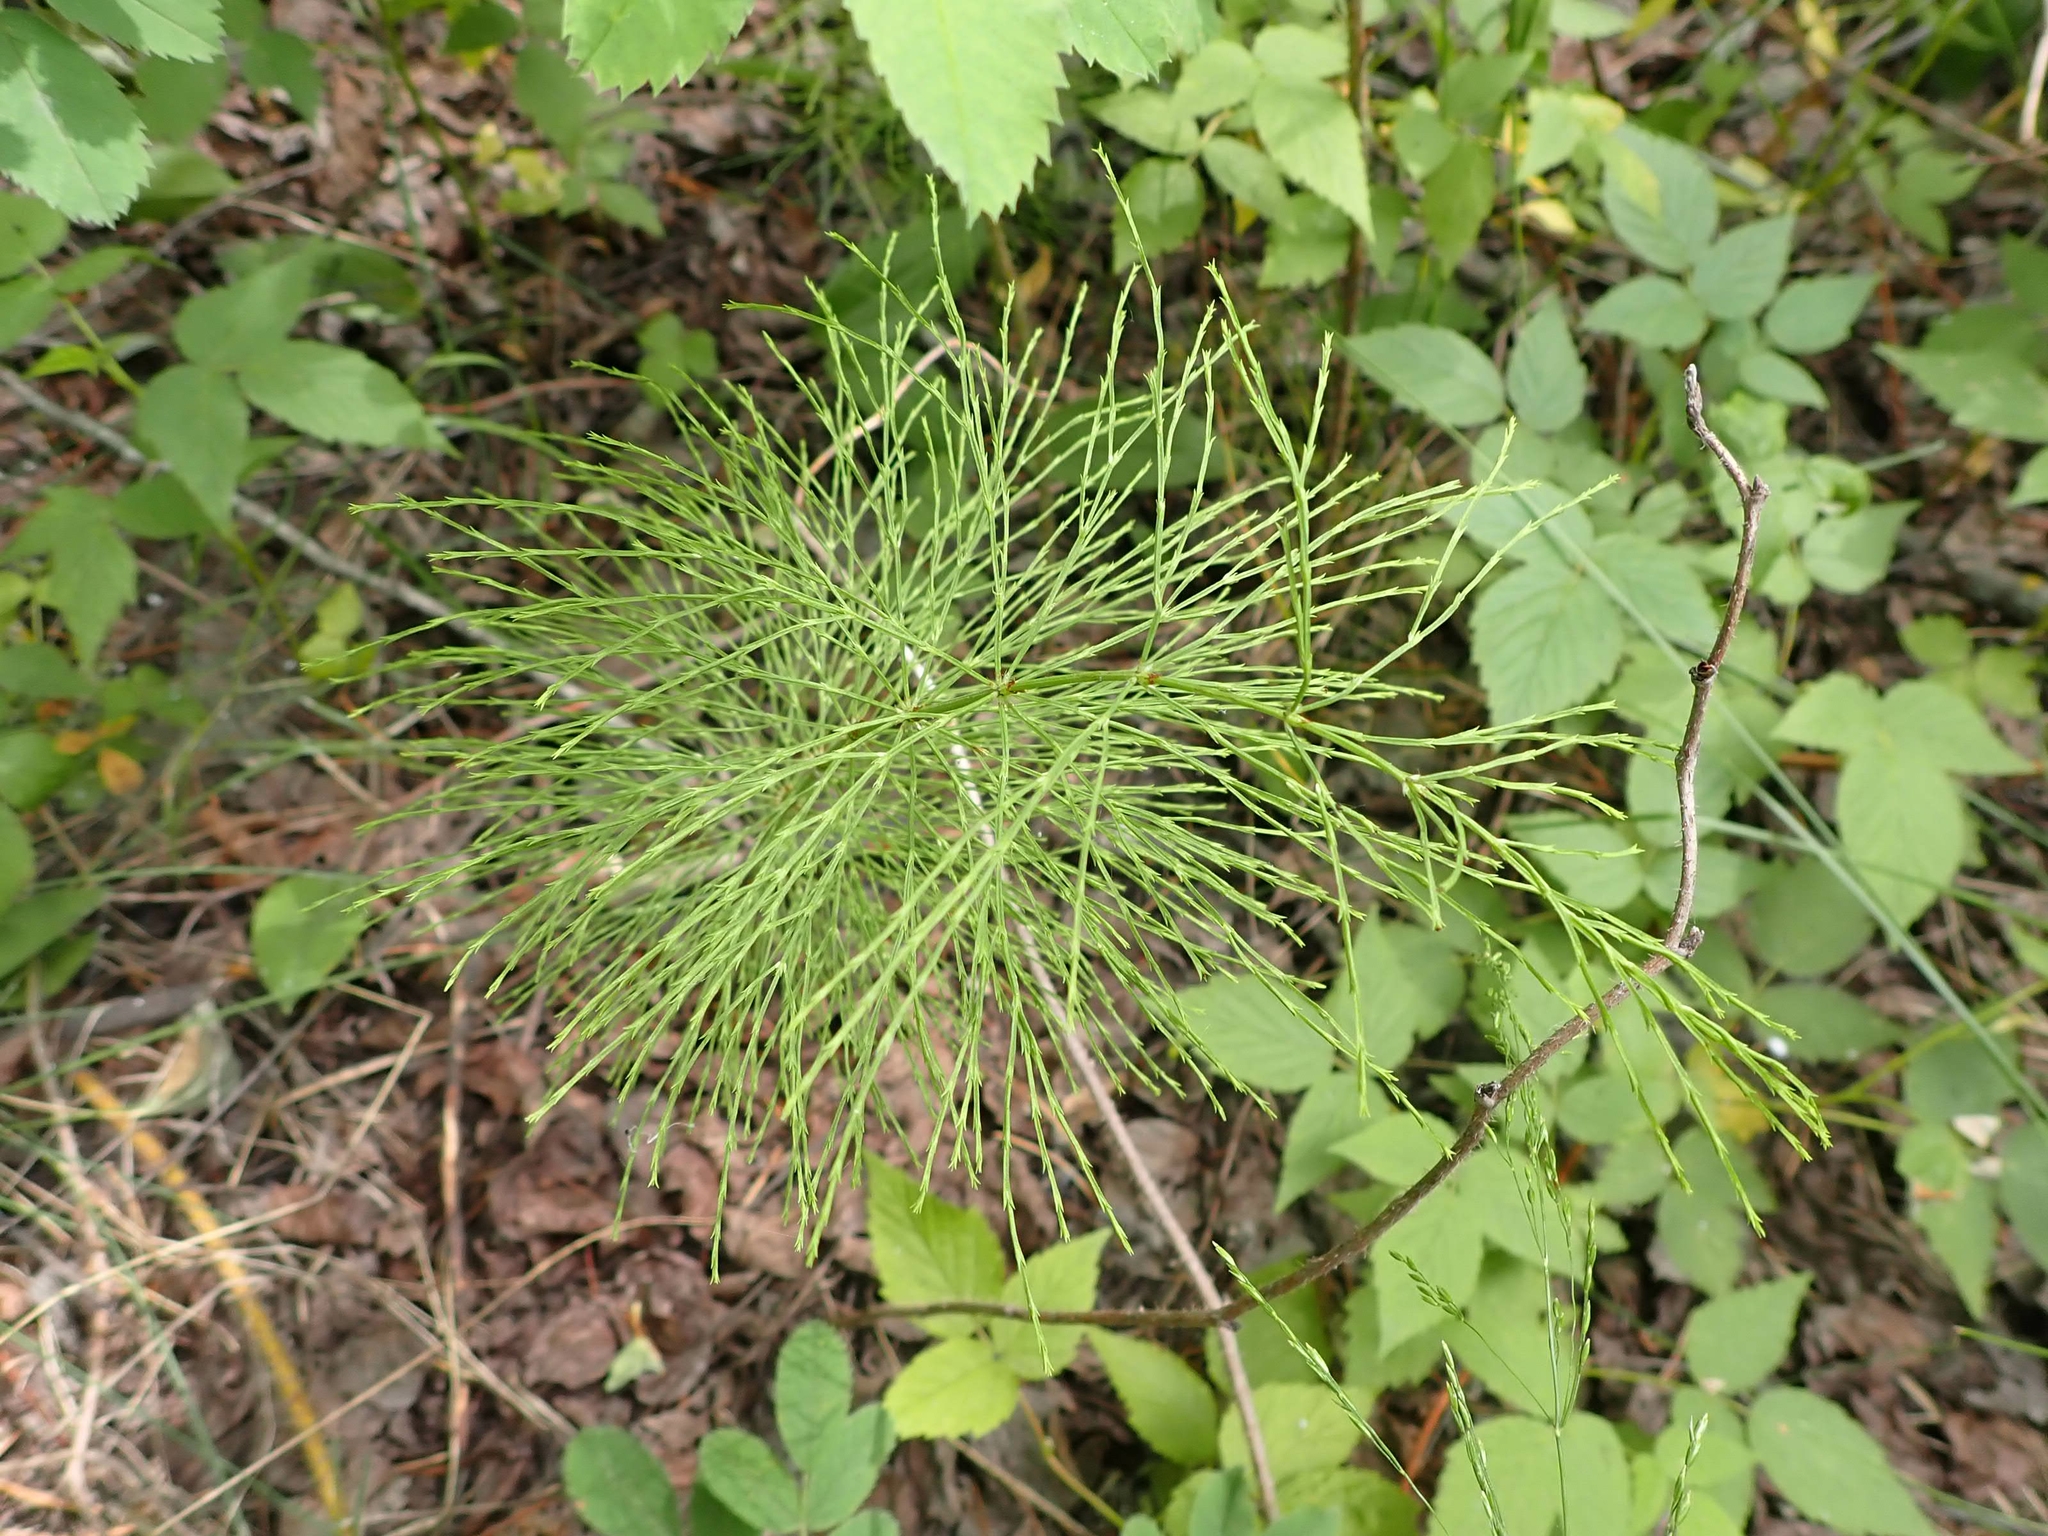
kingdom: Plantae
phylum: Tracheophyta
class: Polypodiopsida
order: Equisetales
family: Equisetaceae
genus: Equisetum
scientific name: Equisetum sylvaticum
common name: Wood horsetail
